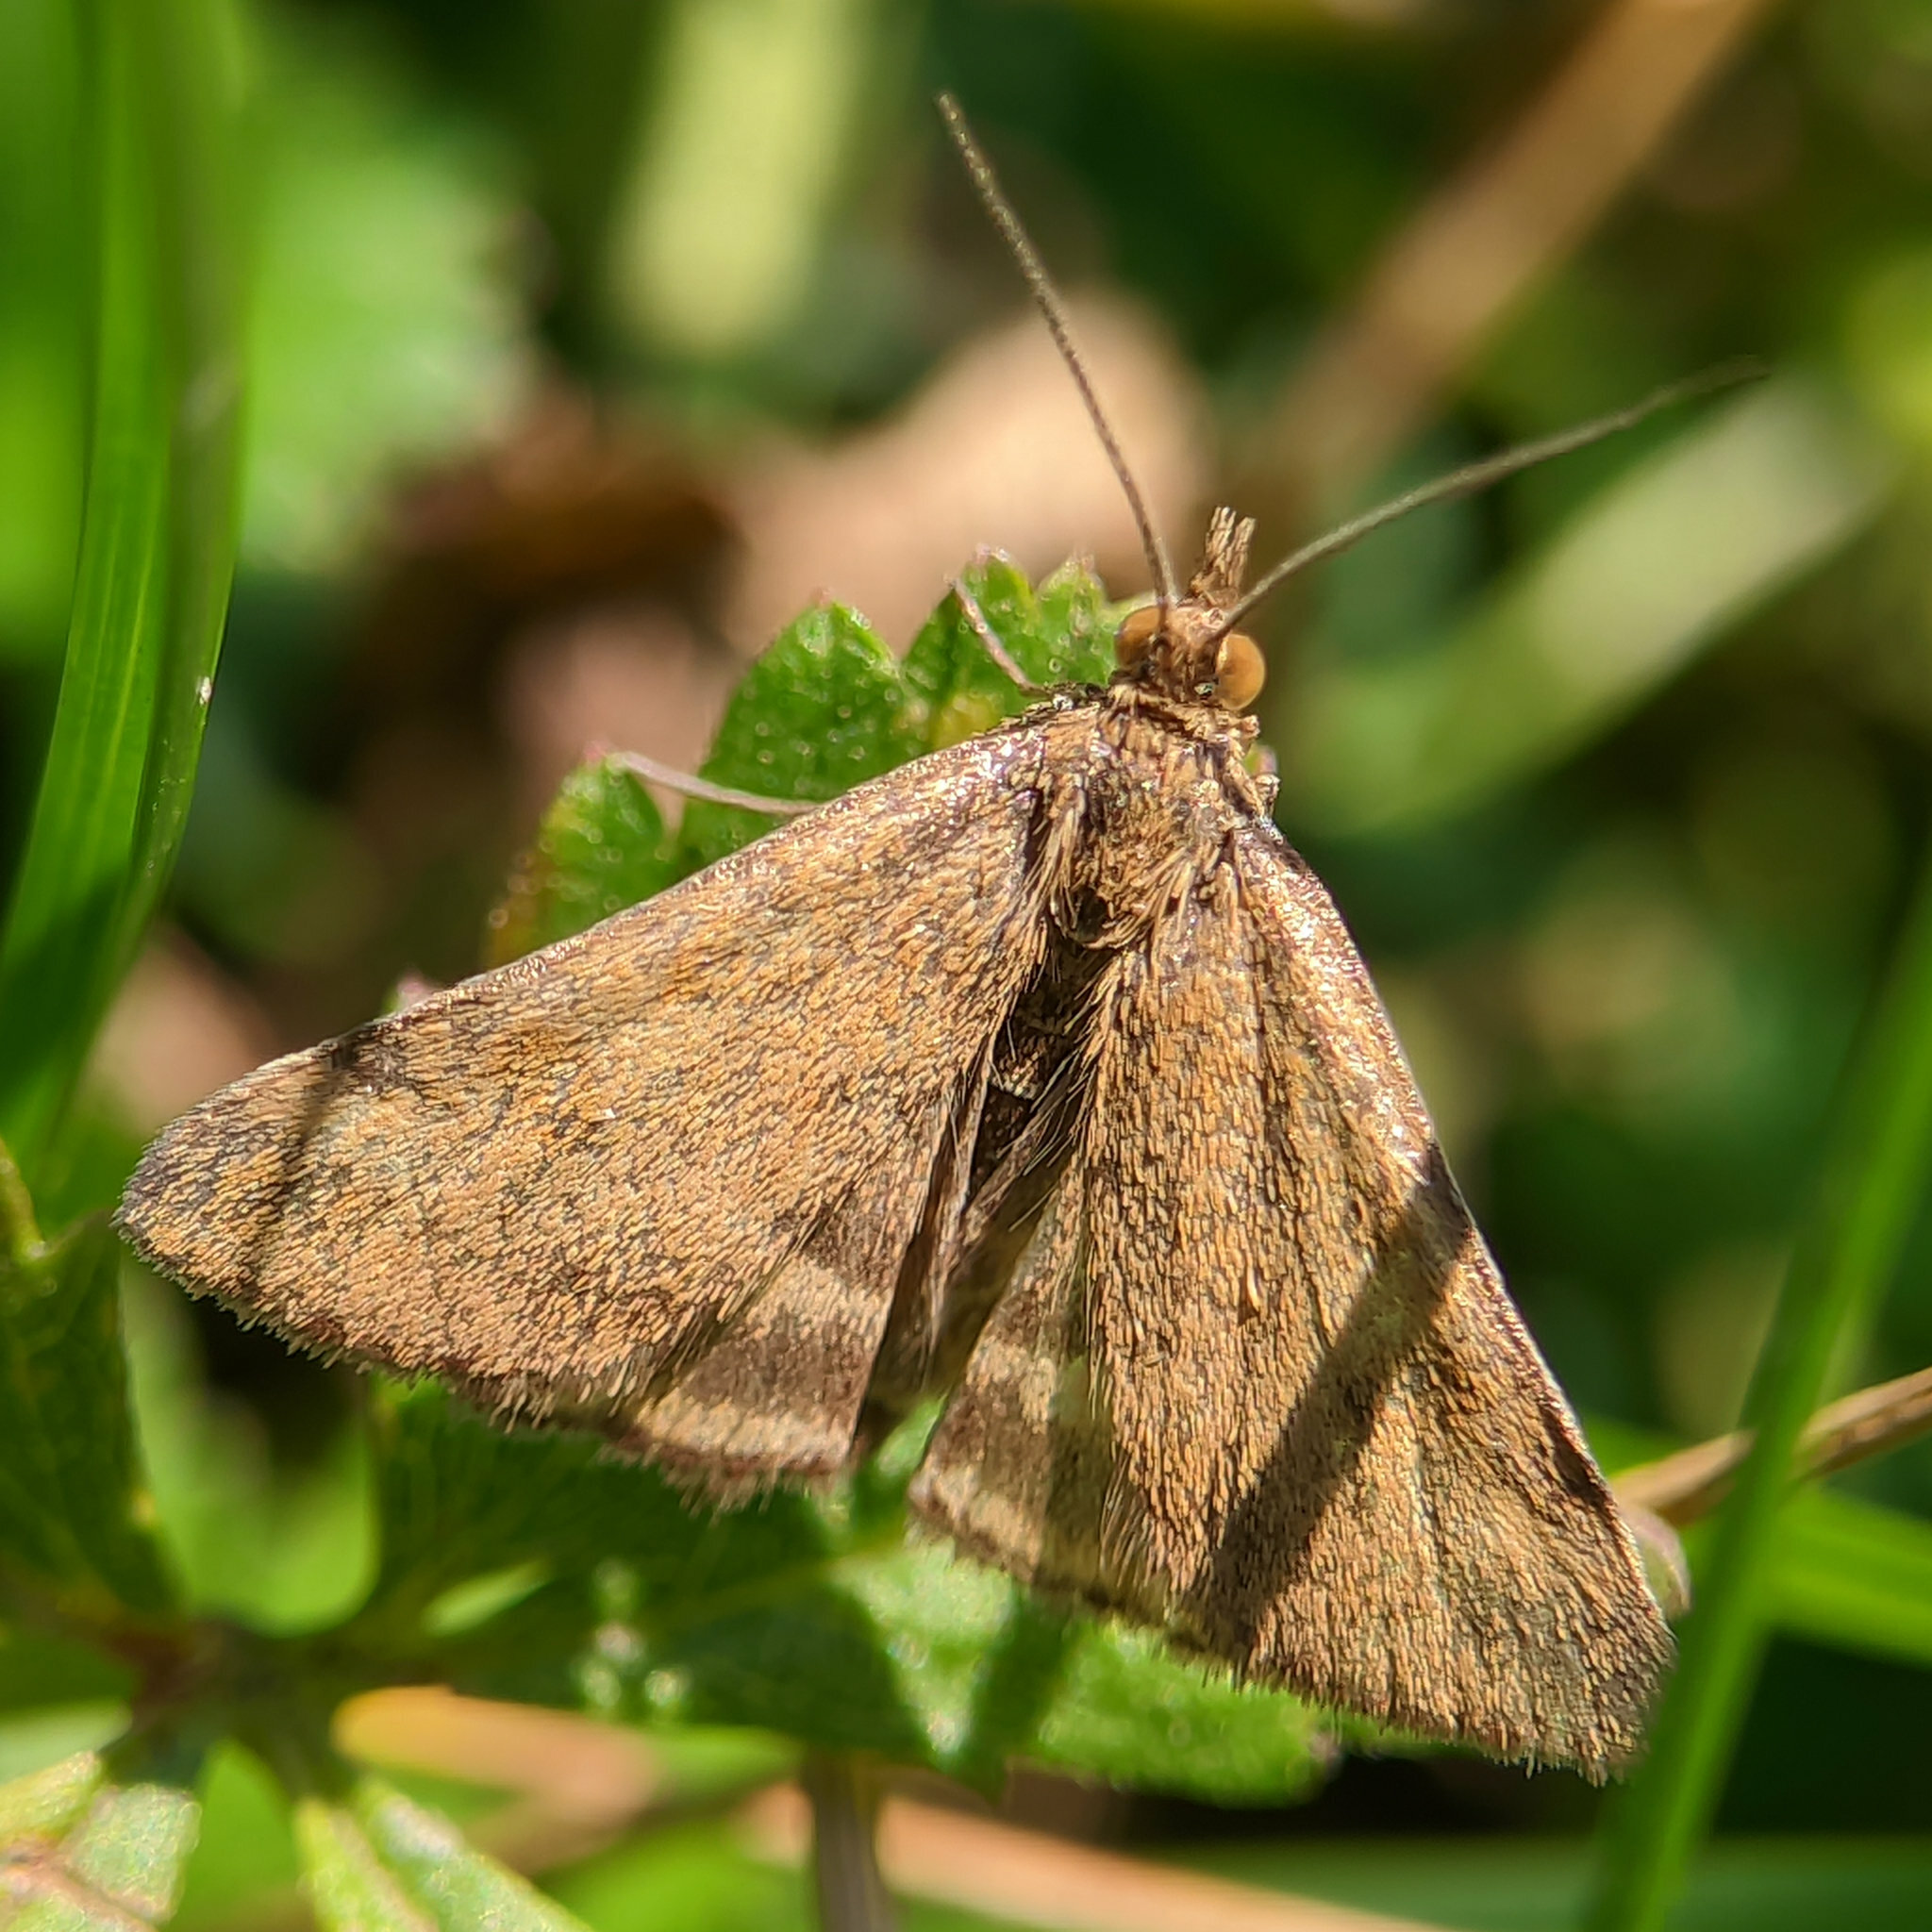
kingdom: Animalia
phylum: Arthropoda
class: Insecta
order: Lepidoptera
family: Crambidae
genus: Pyrausta
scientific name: Pyrausta despicata
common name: Straw-barred pearl
